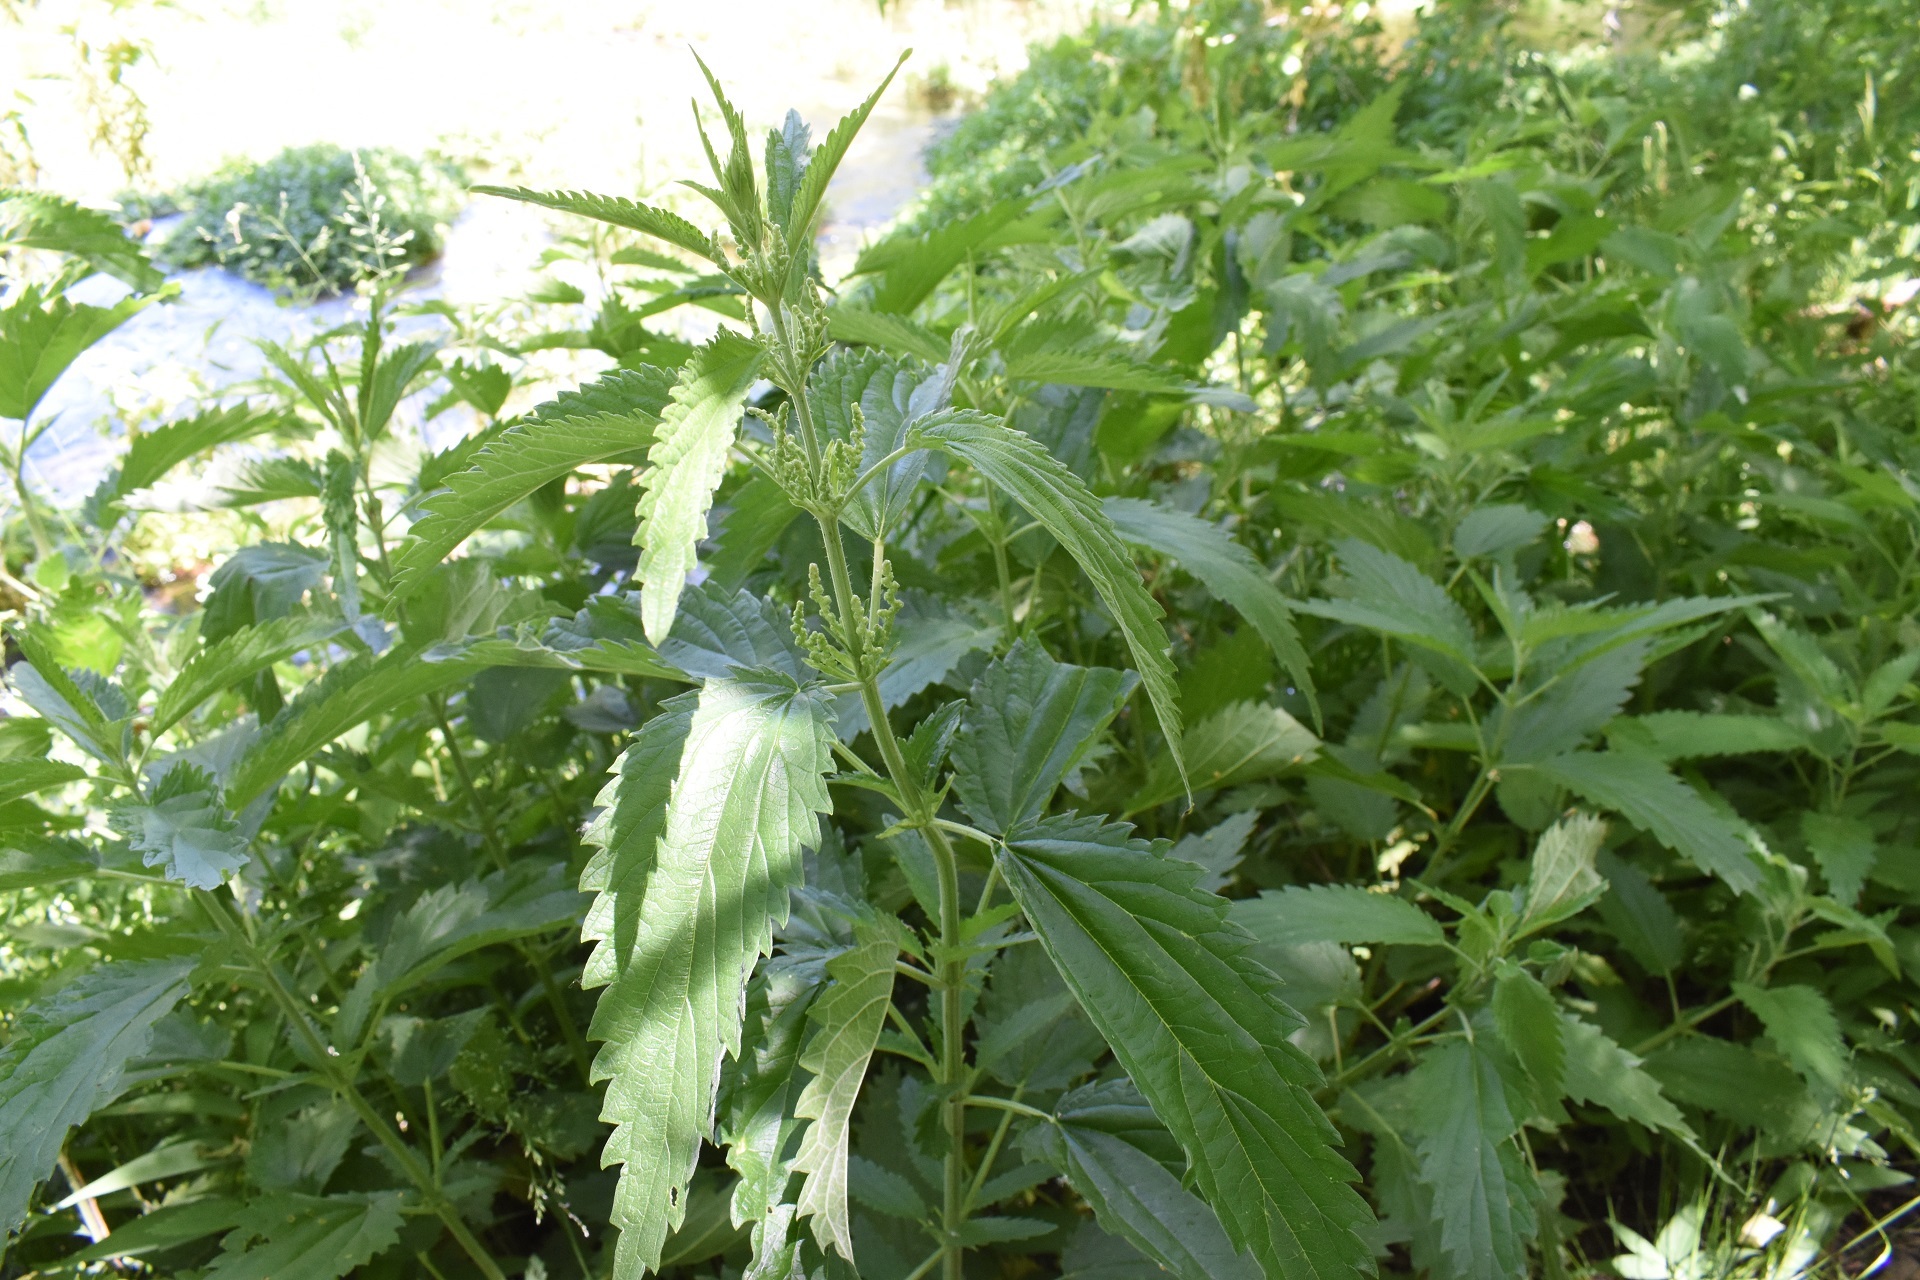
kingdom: Plantae
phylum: Tracheophyta
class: Magnoliopsida
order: Rosales
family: Urticaceae
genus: Urtica
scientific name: Urtica dioica
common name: Common nettle
